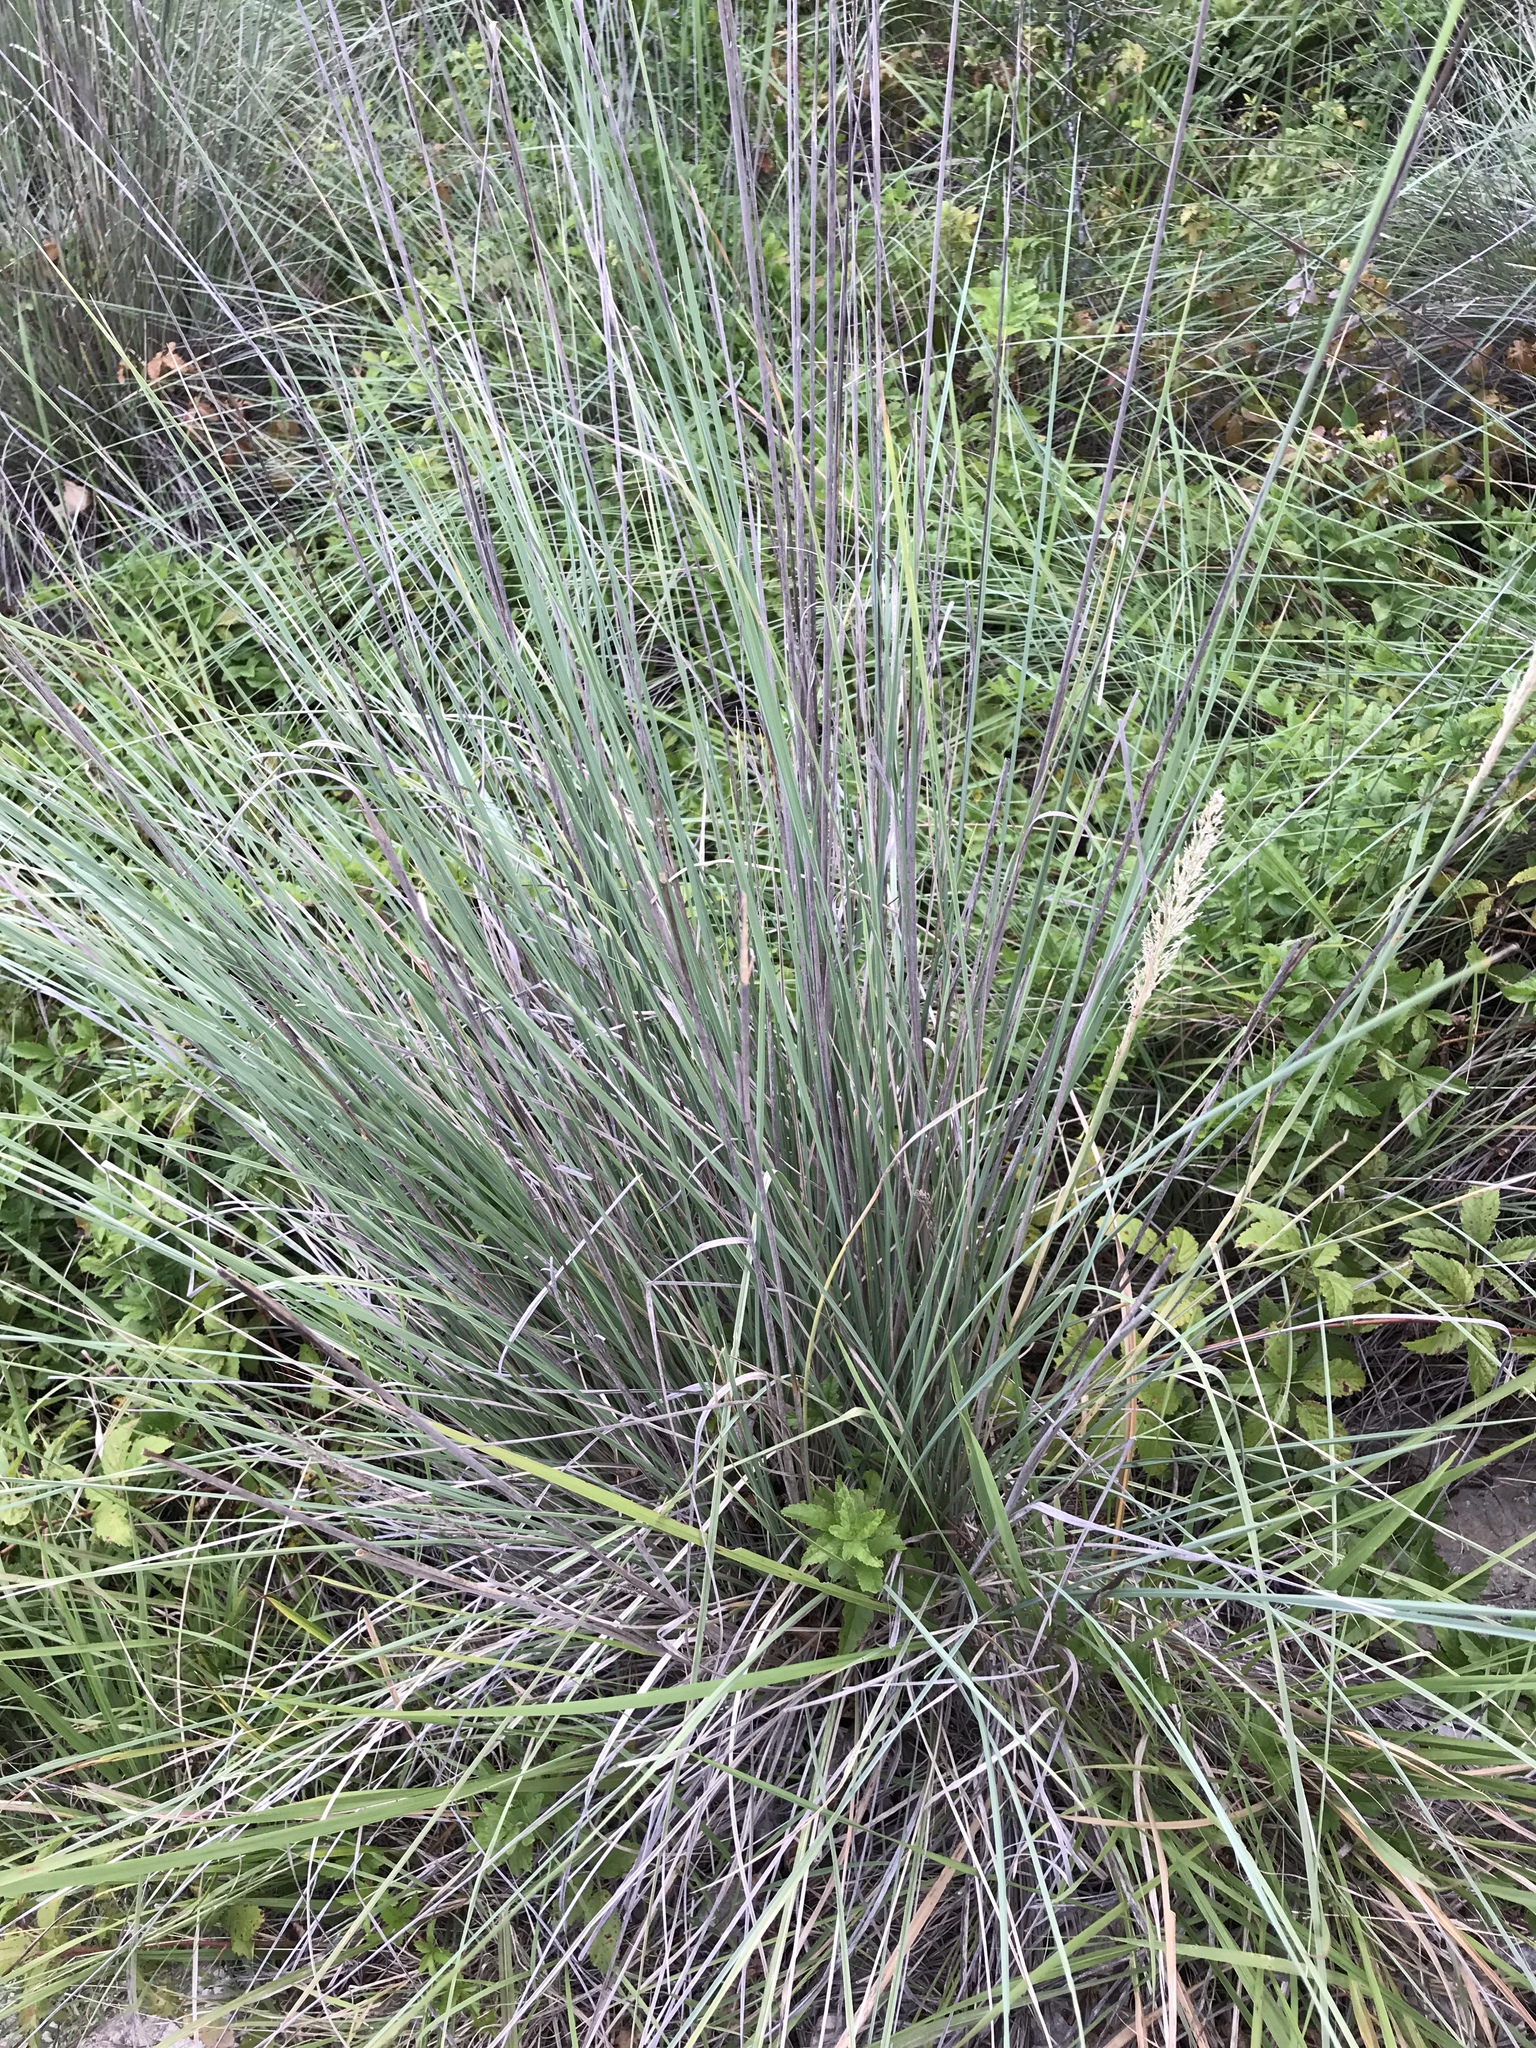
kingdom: Plantae
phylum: Tracheophyta
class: Liliopsida
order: Poales
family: Poaceae
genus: Muhlenbergia
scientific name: Muhlenbergia lindheimeri
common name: Lindheimer's muhly
